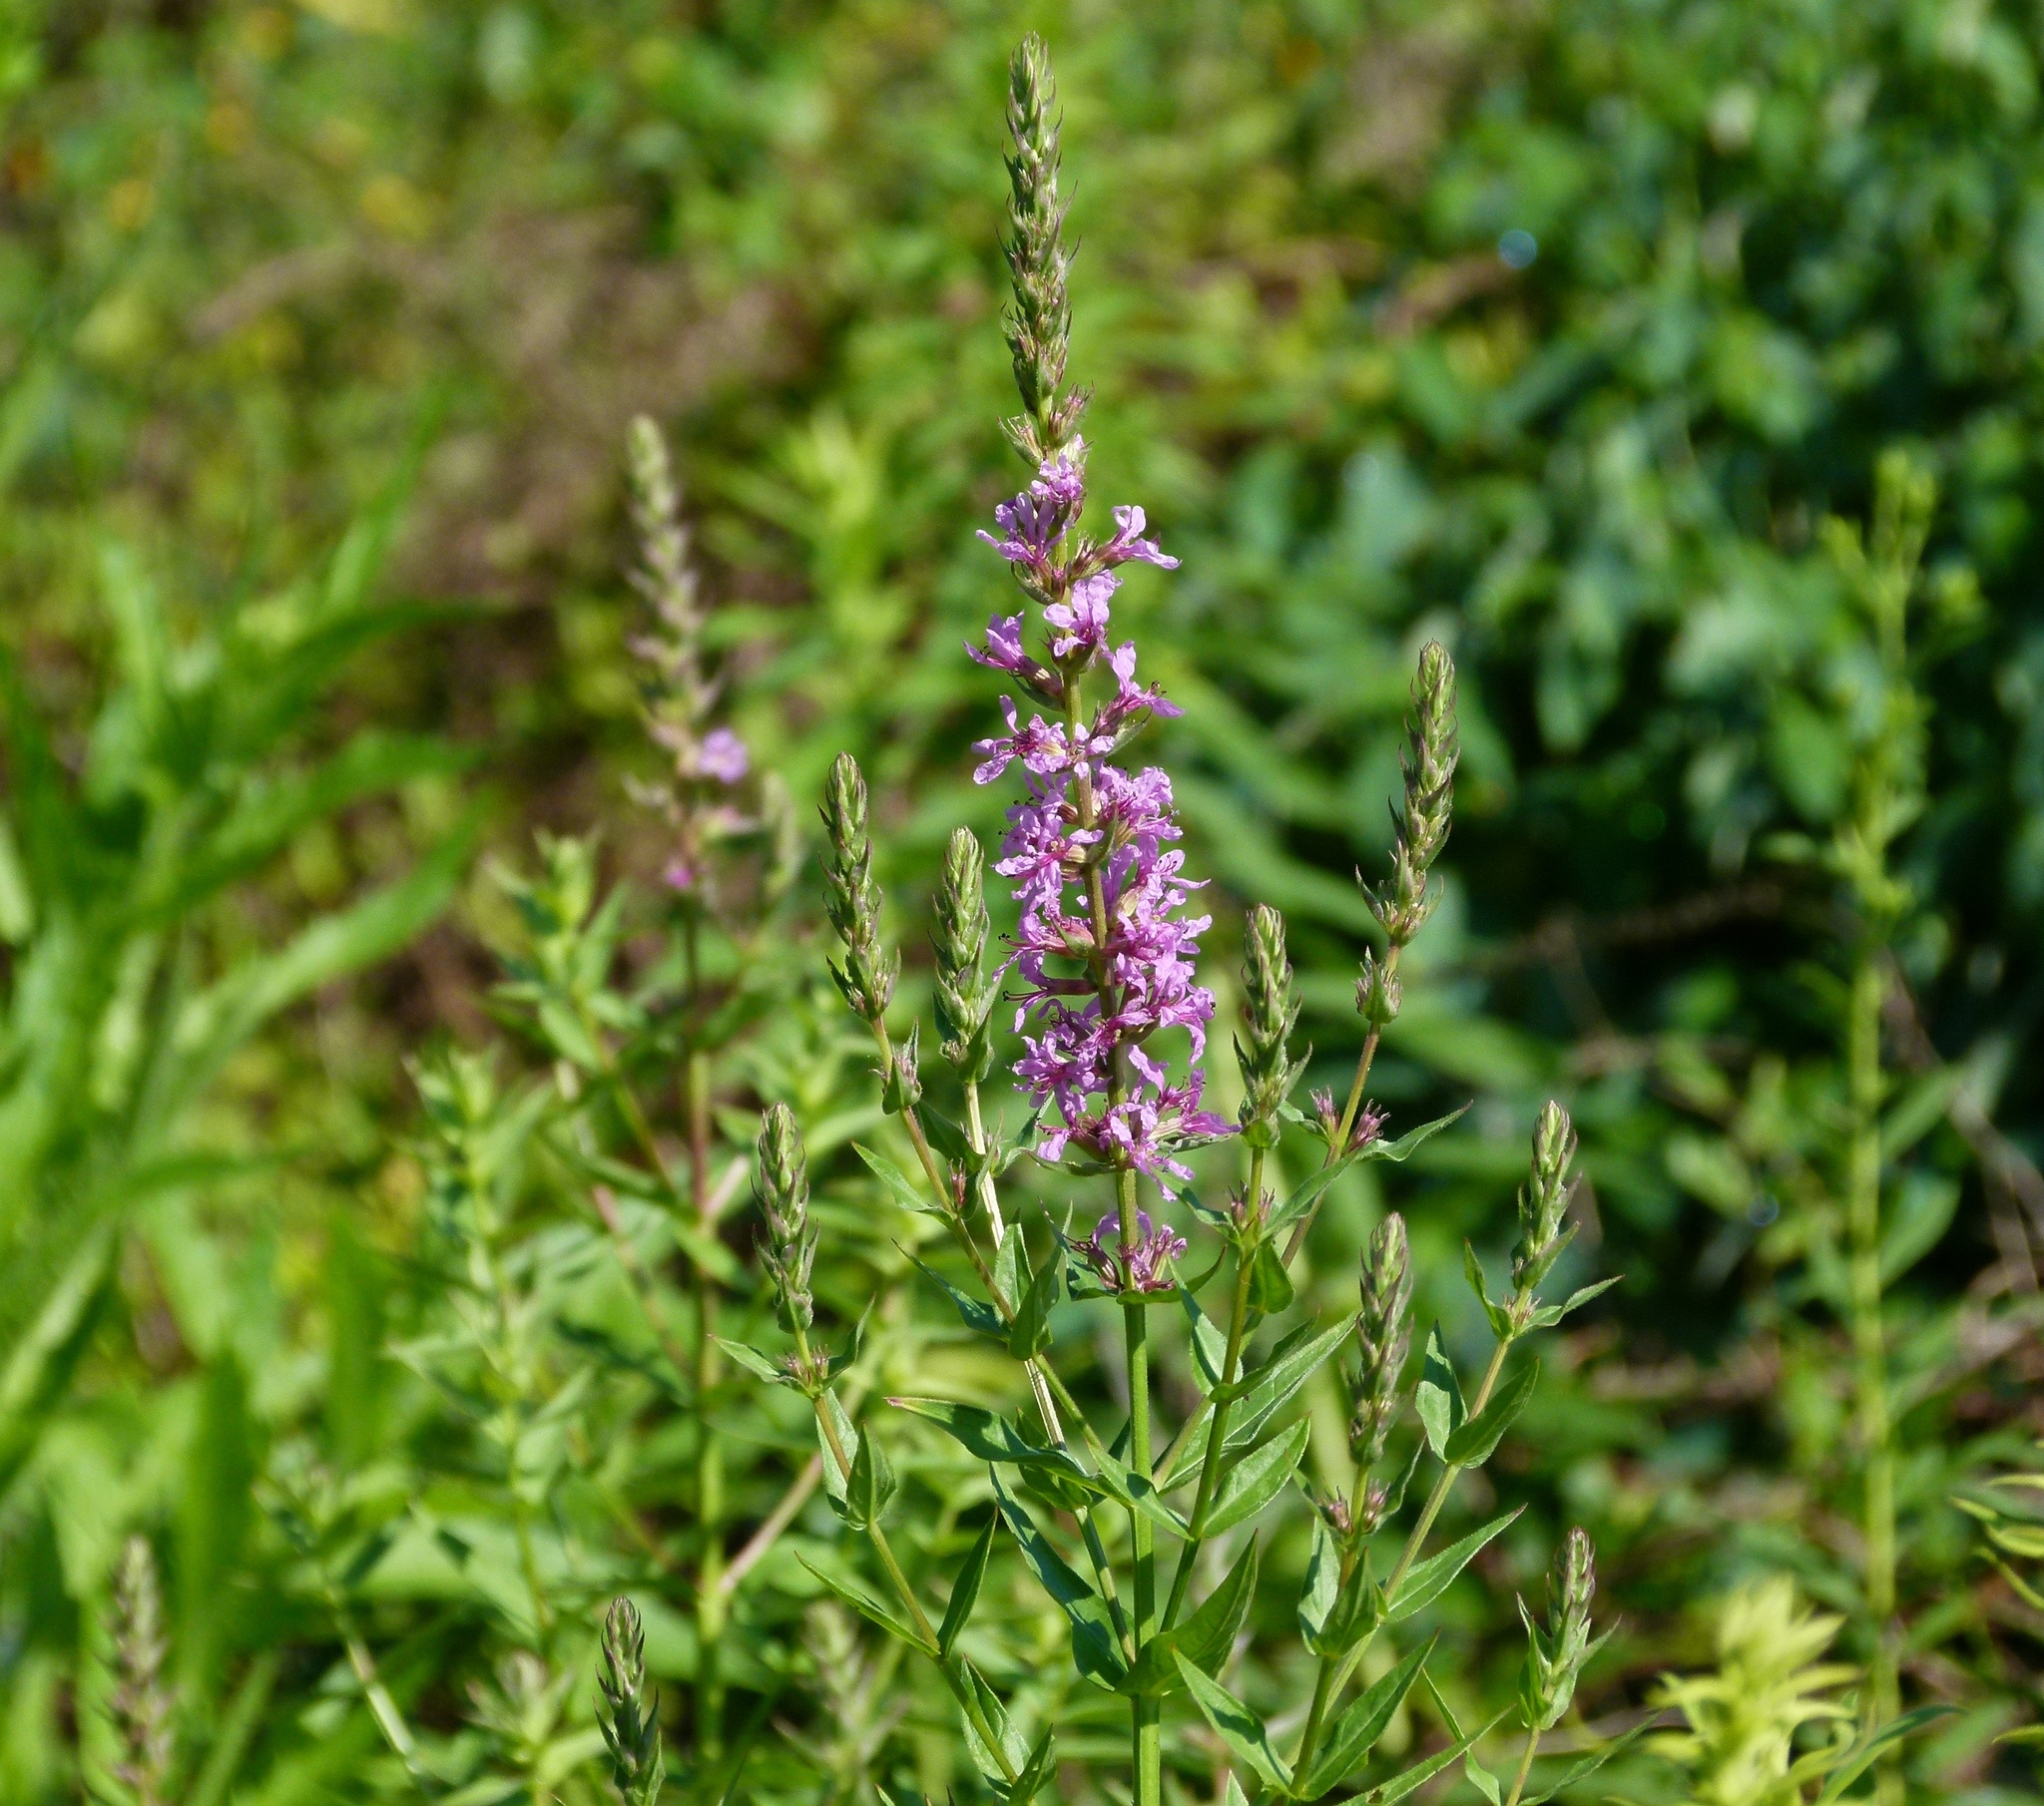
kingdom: Plantae
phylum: Tracheophyta
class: Magnoliopsida
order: Myrtales
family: Lythraceae
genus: Lythrum
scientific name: Lythrum salicaria
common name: Purple loosestrife
